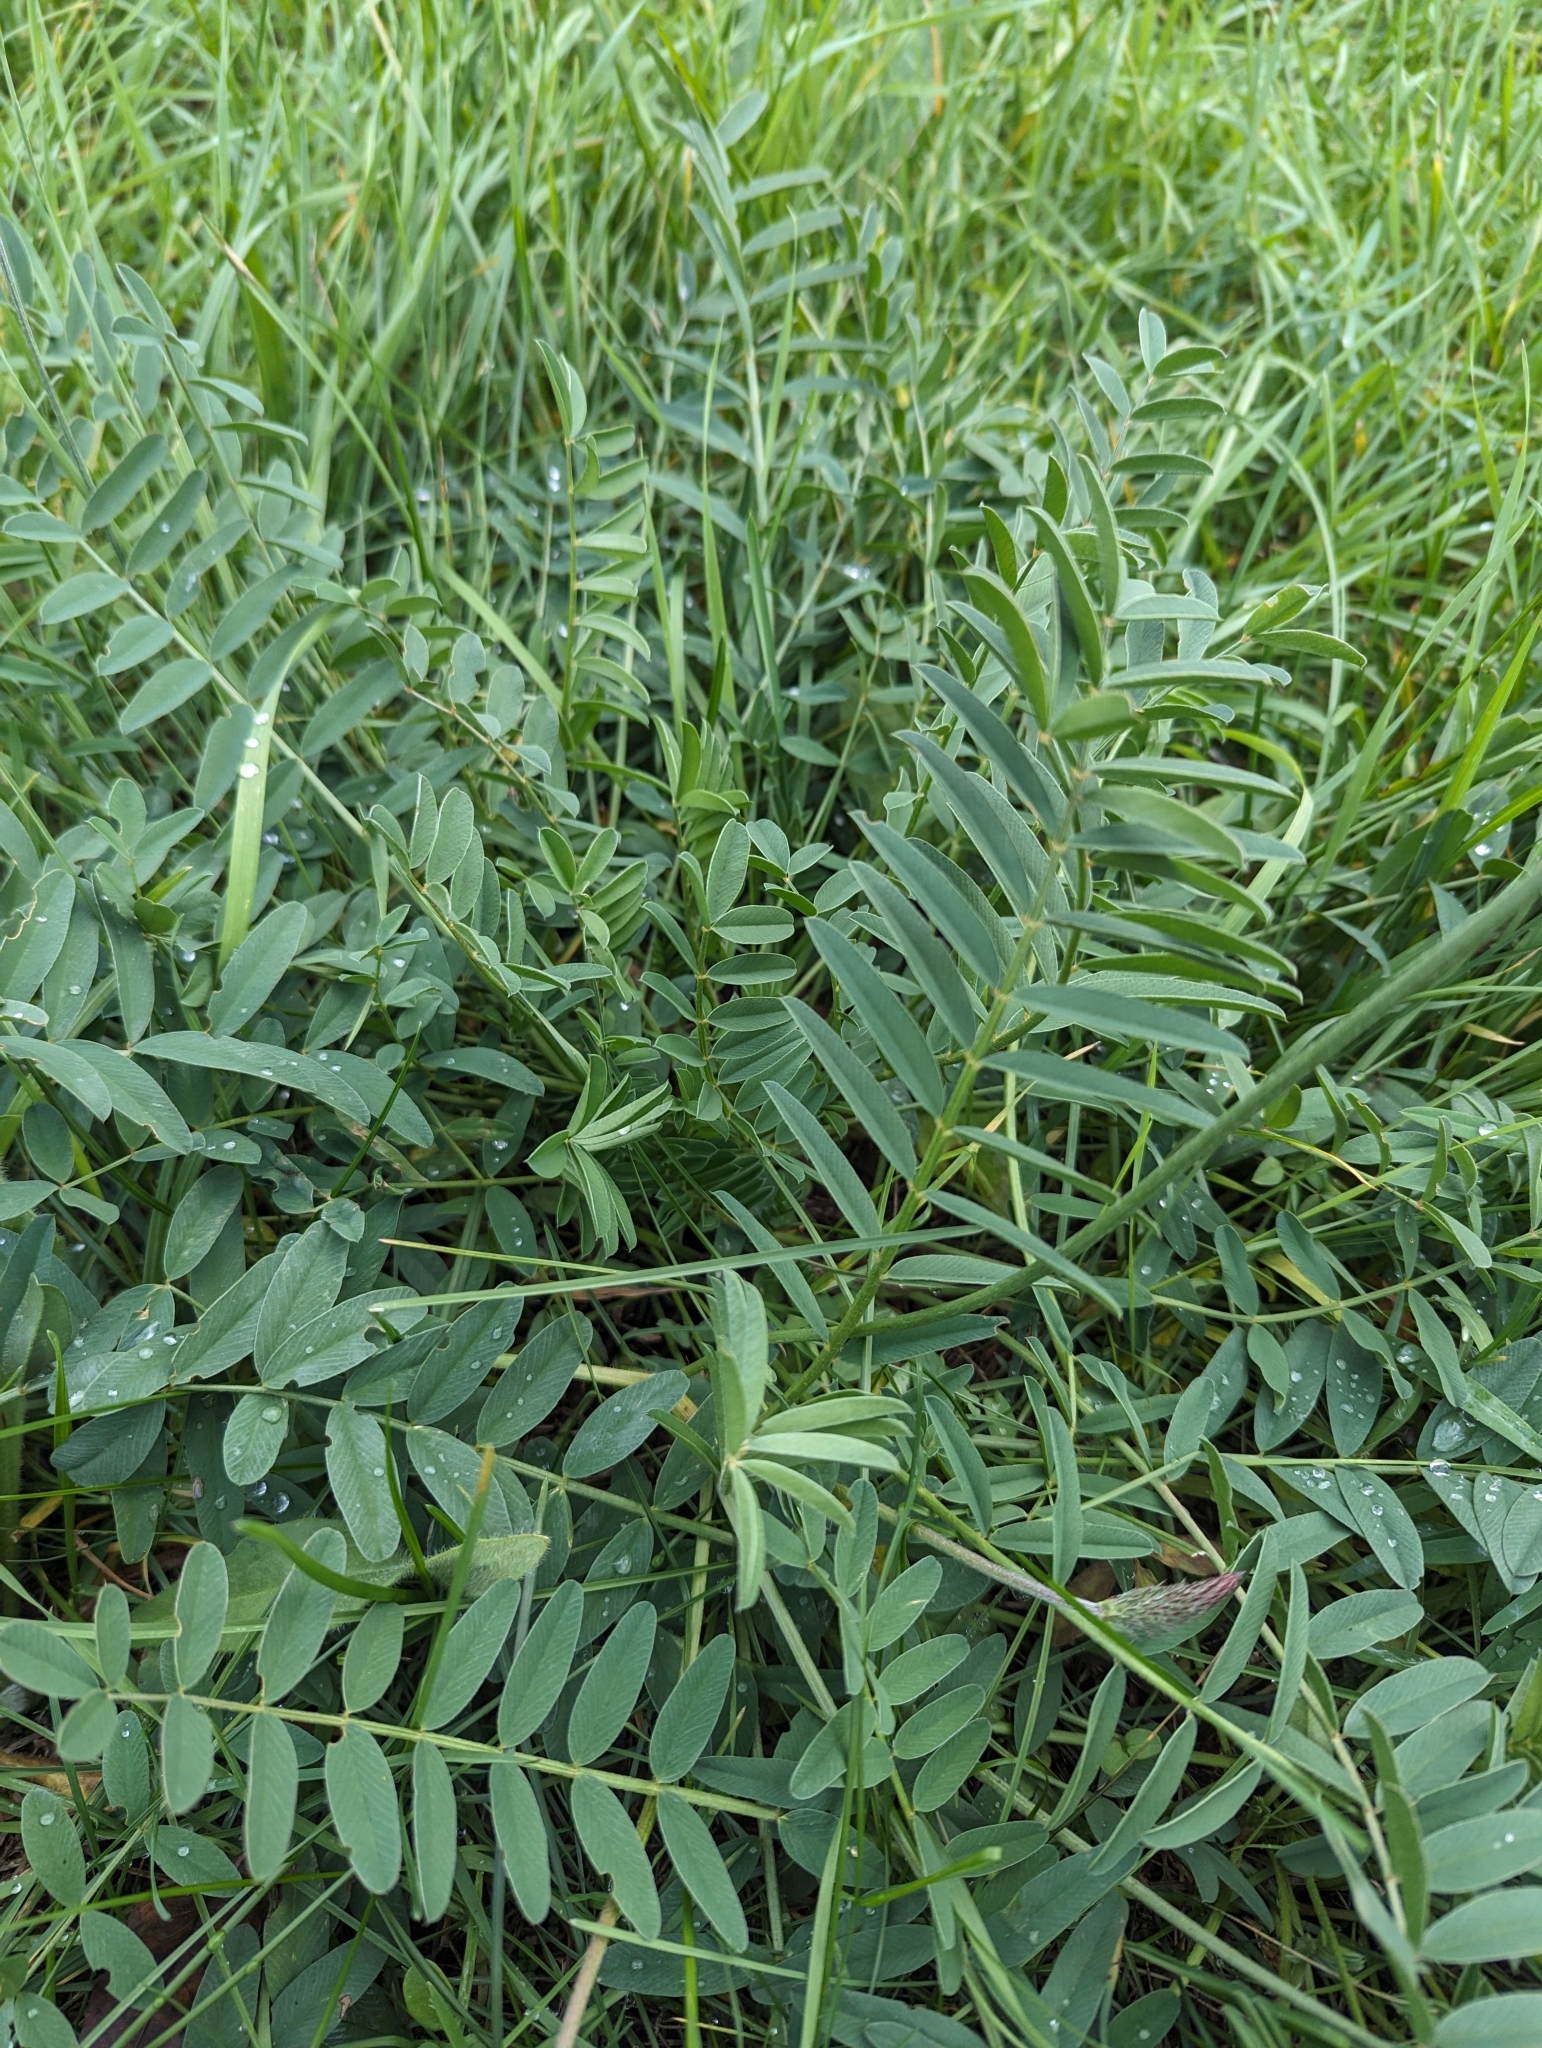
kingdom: Plantae
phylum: Tracheophyta
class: Magnoliopsida
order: Fabales
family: Fabaceae
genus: Onobrychis
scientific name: Onobrychis viciifolia
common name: Sainfoin
